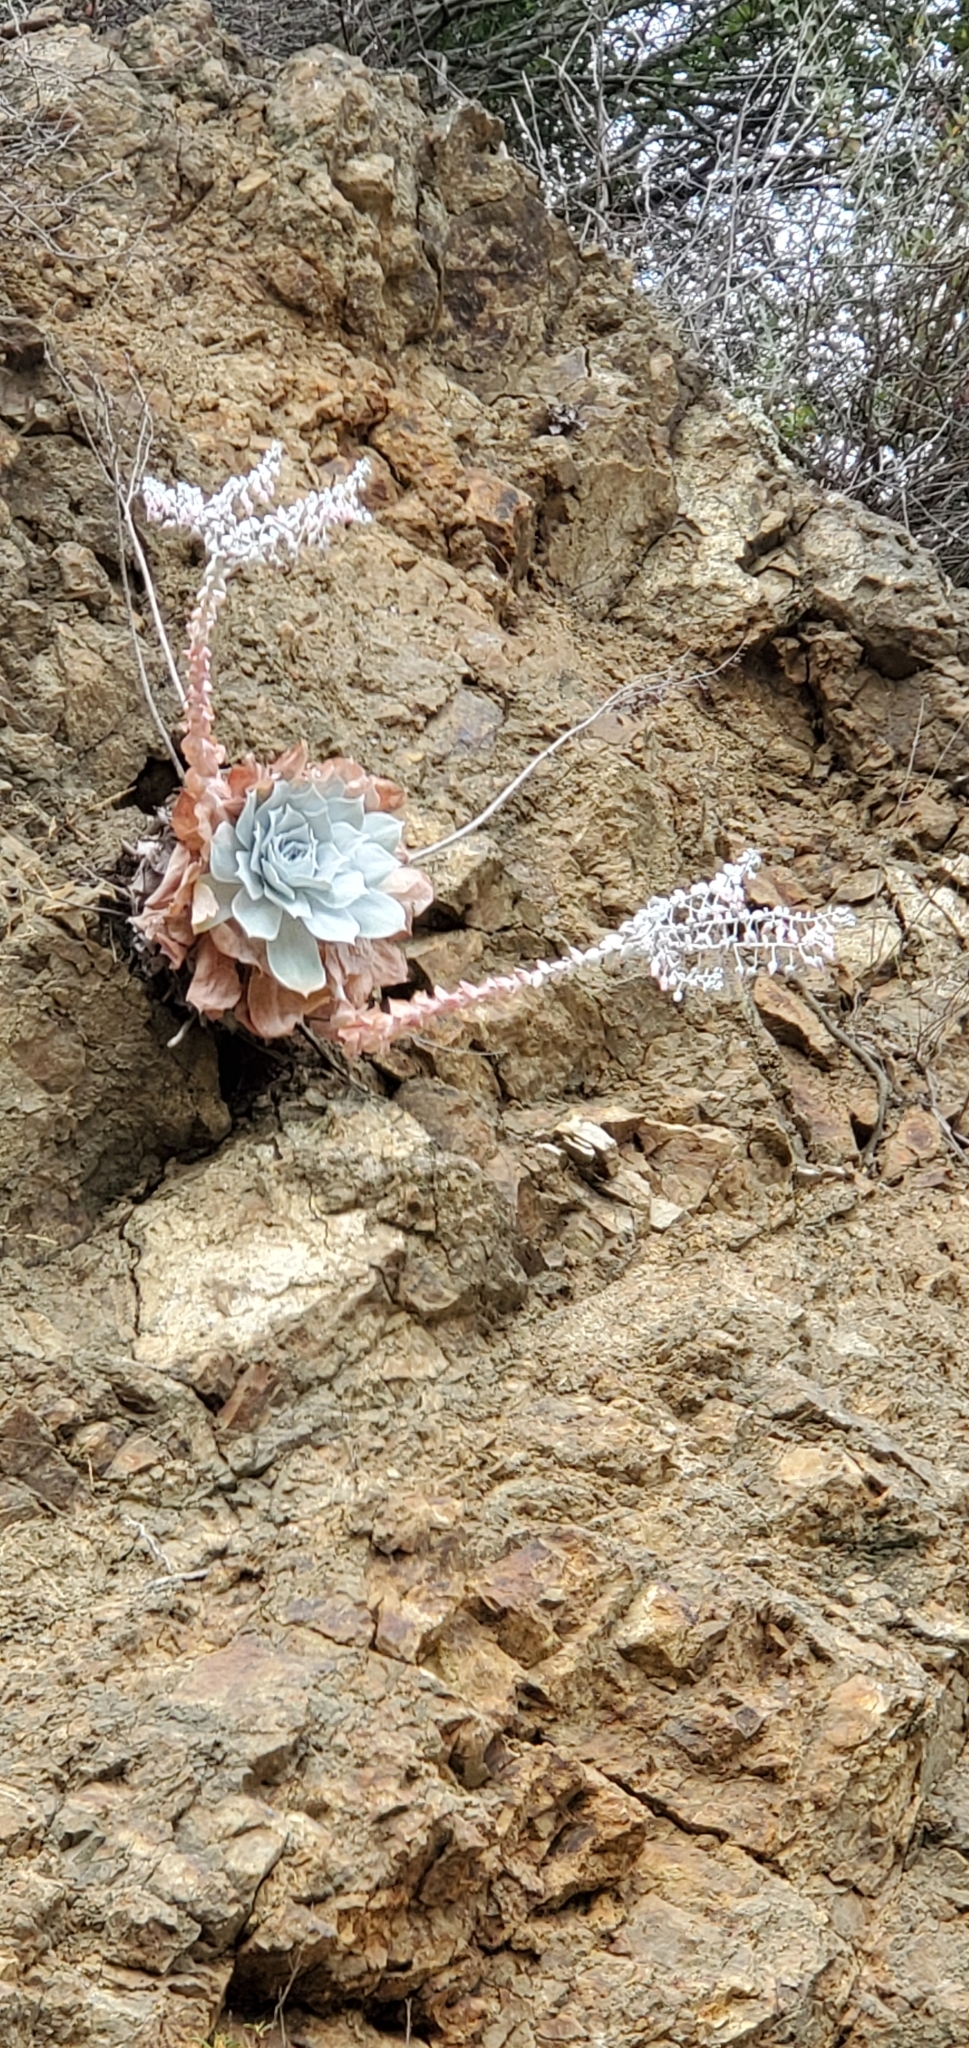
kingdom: Plantae
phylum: Tracheophyta
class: Magnoliopsida
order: Saxifragales
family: Crassulaceae
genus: Dudleya
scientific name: Dudleya pulverulenta
